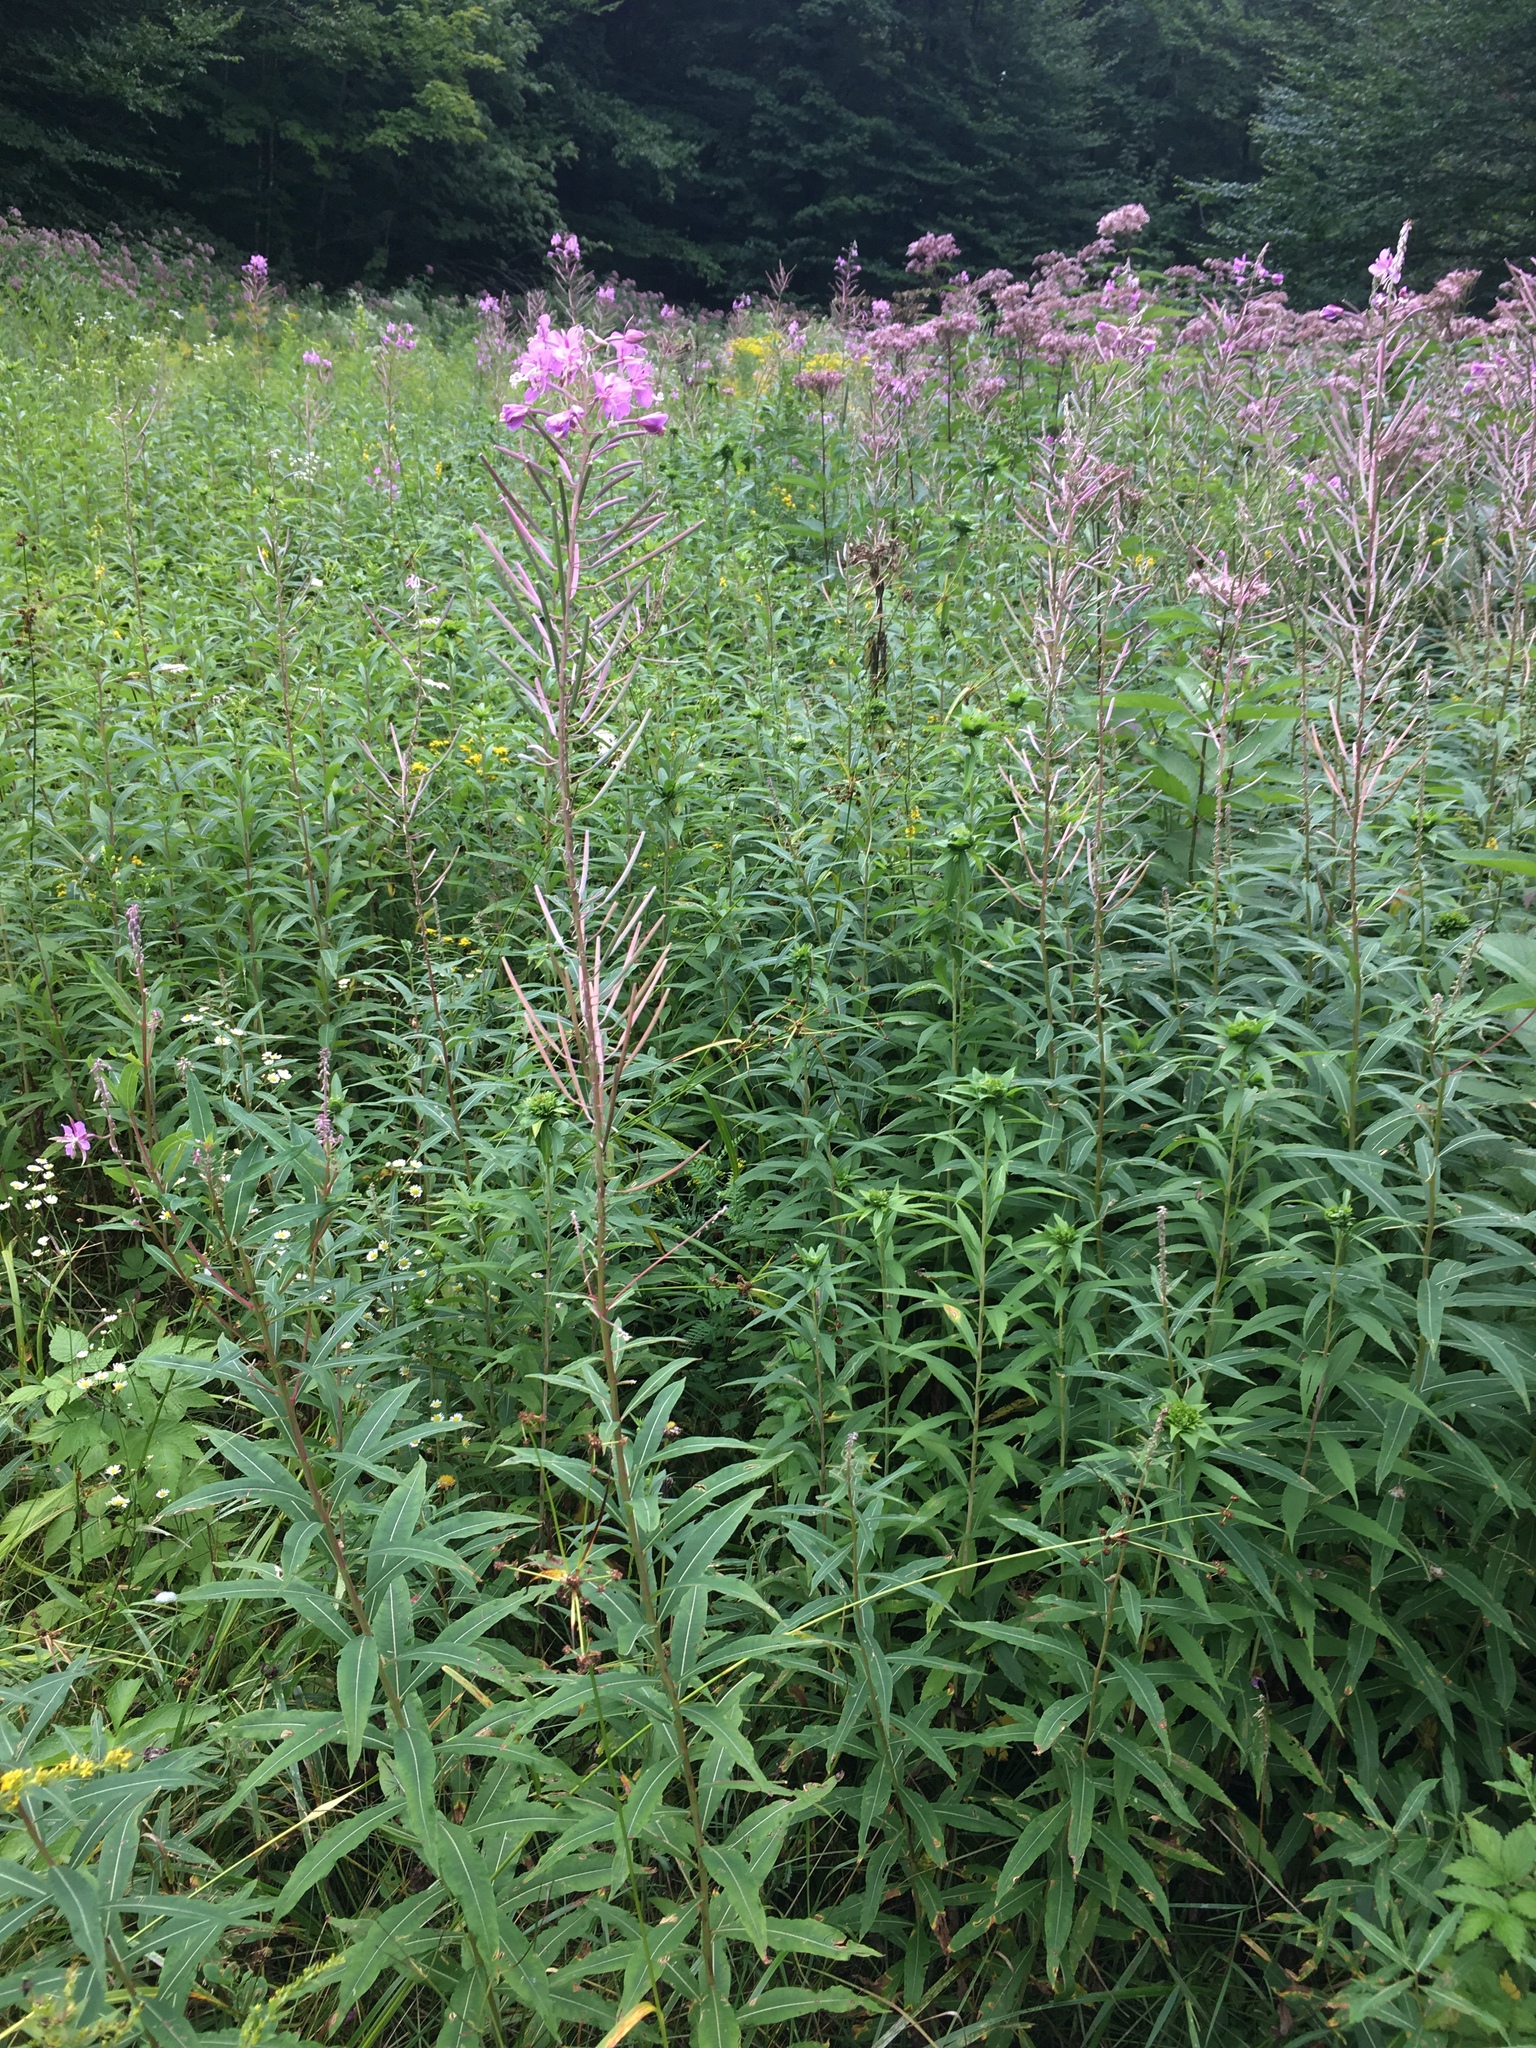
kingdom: Plantae
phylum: Tracheophyta
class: Magnoliopsida
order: Myrtales
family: Onagraceae
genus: Chamaenerion
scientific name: Chamaenerion angustifolium
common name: Fireweed
